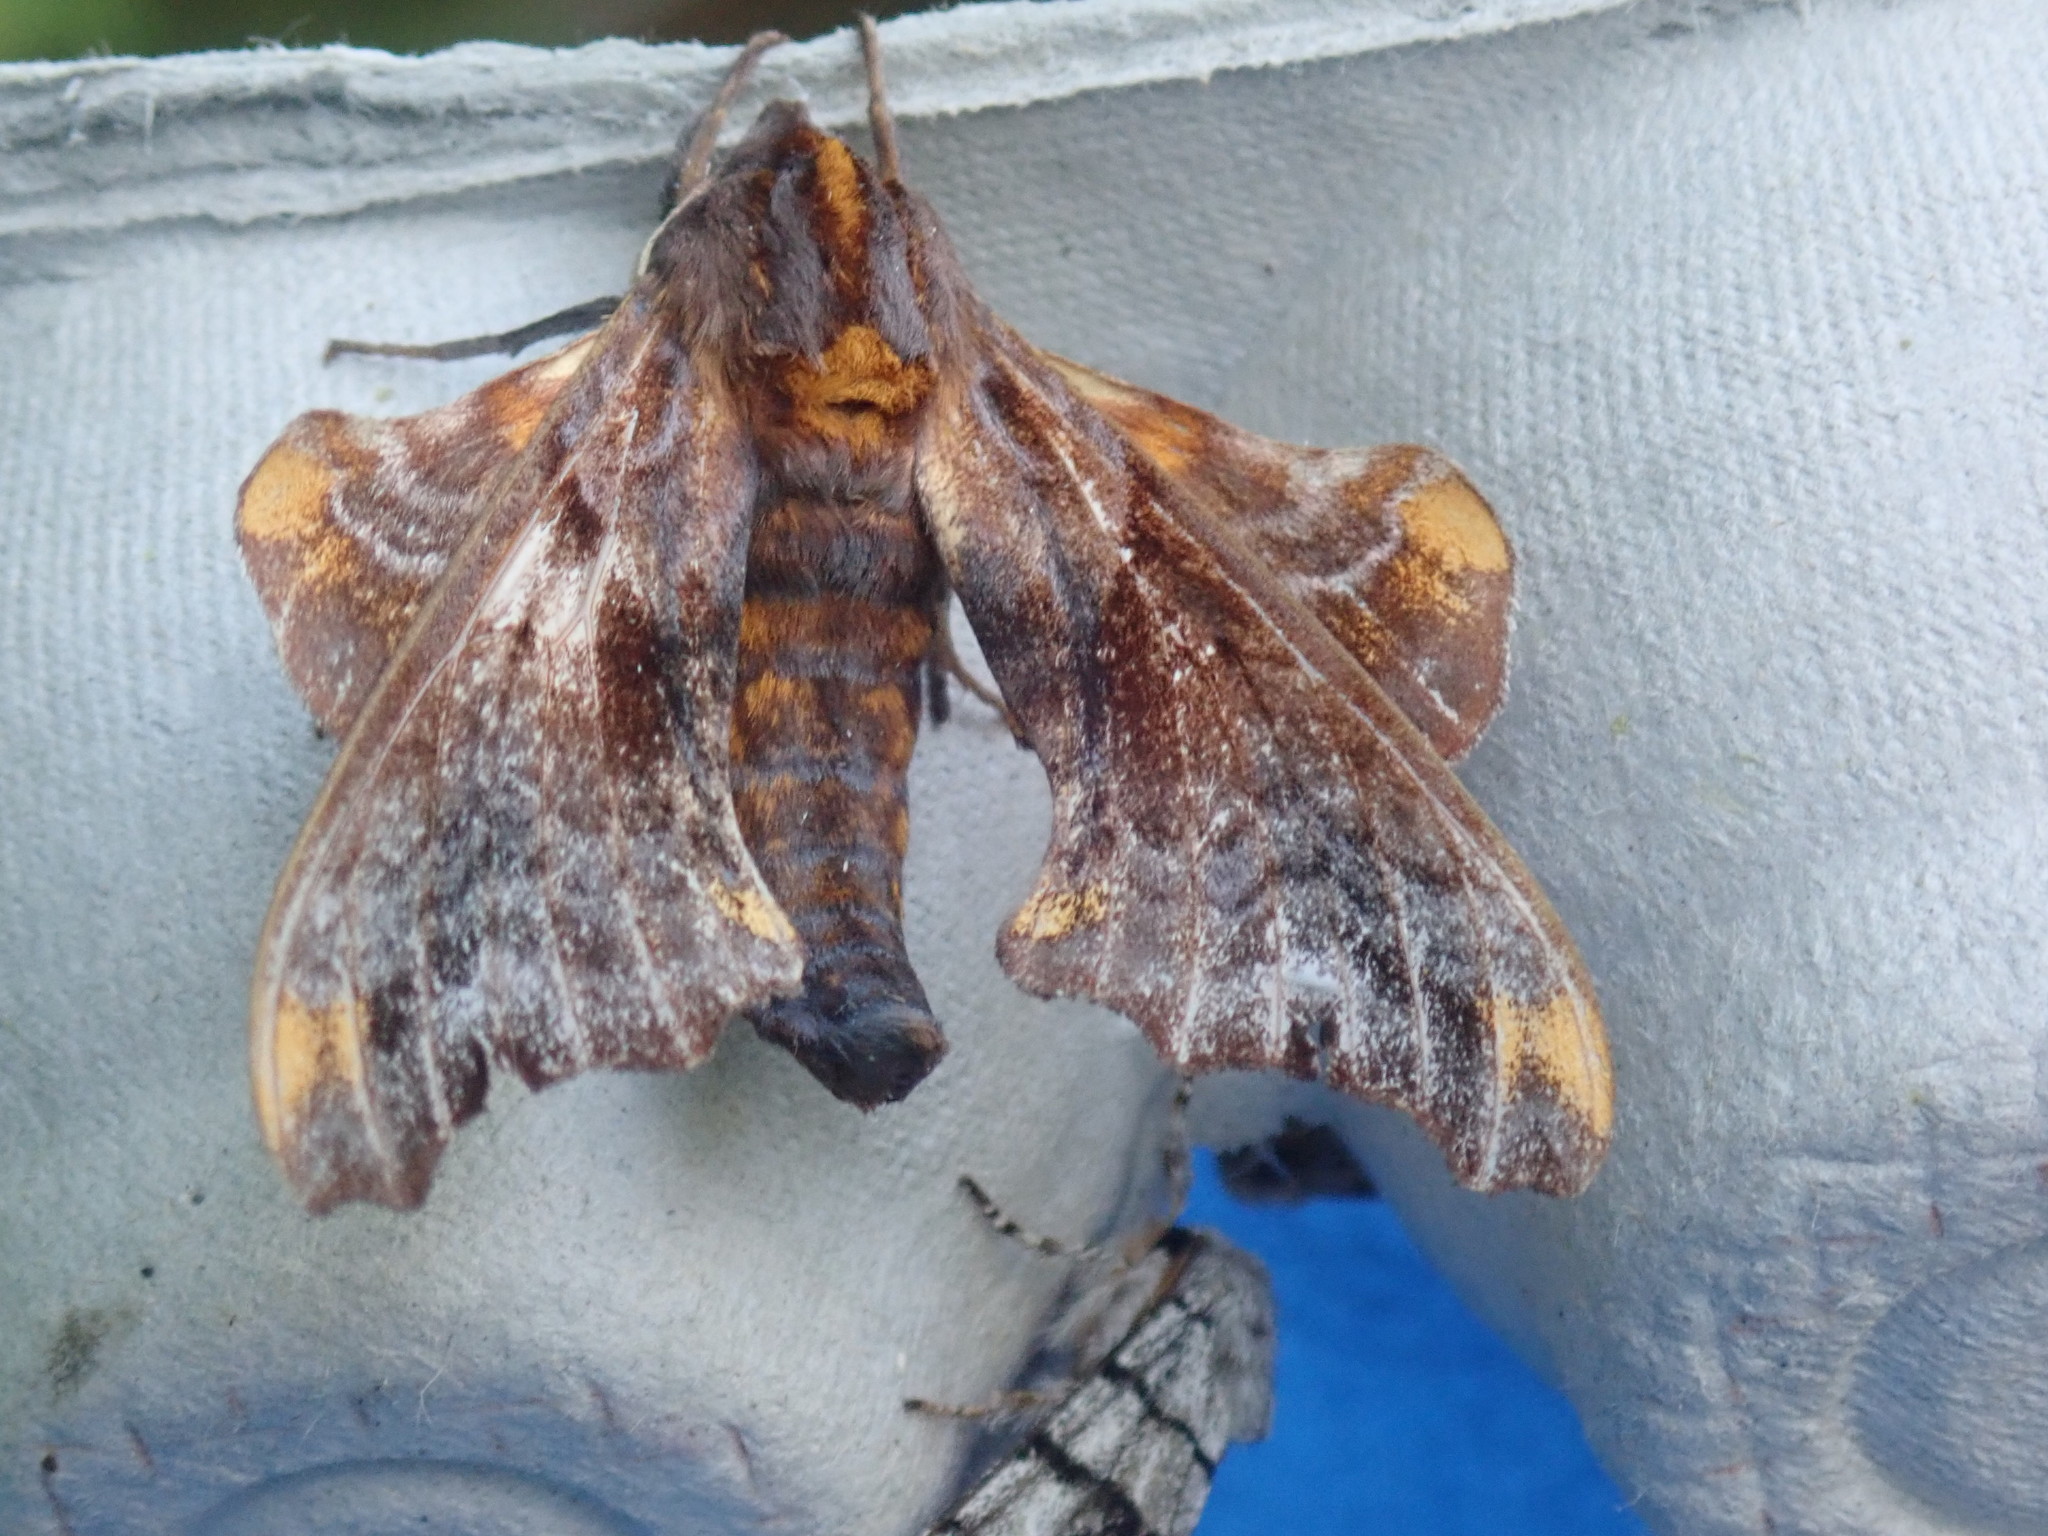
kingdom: Animalia
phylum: Arthropoda
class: Insecta
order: Lepidoptera
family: Sphingidae
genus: Paonias
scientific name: Paonias myops
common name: Small-eyed sphinx
